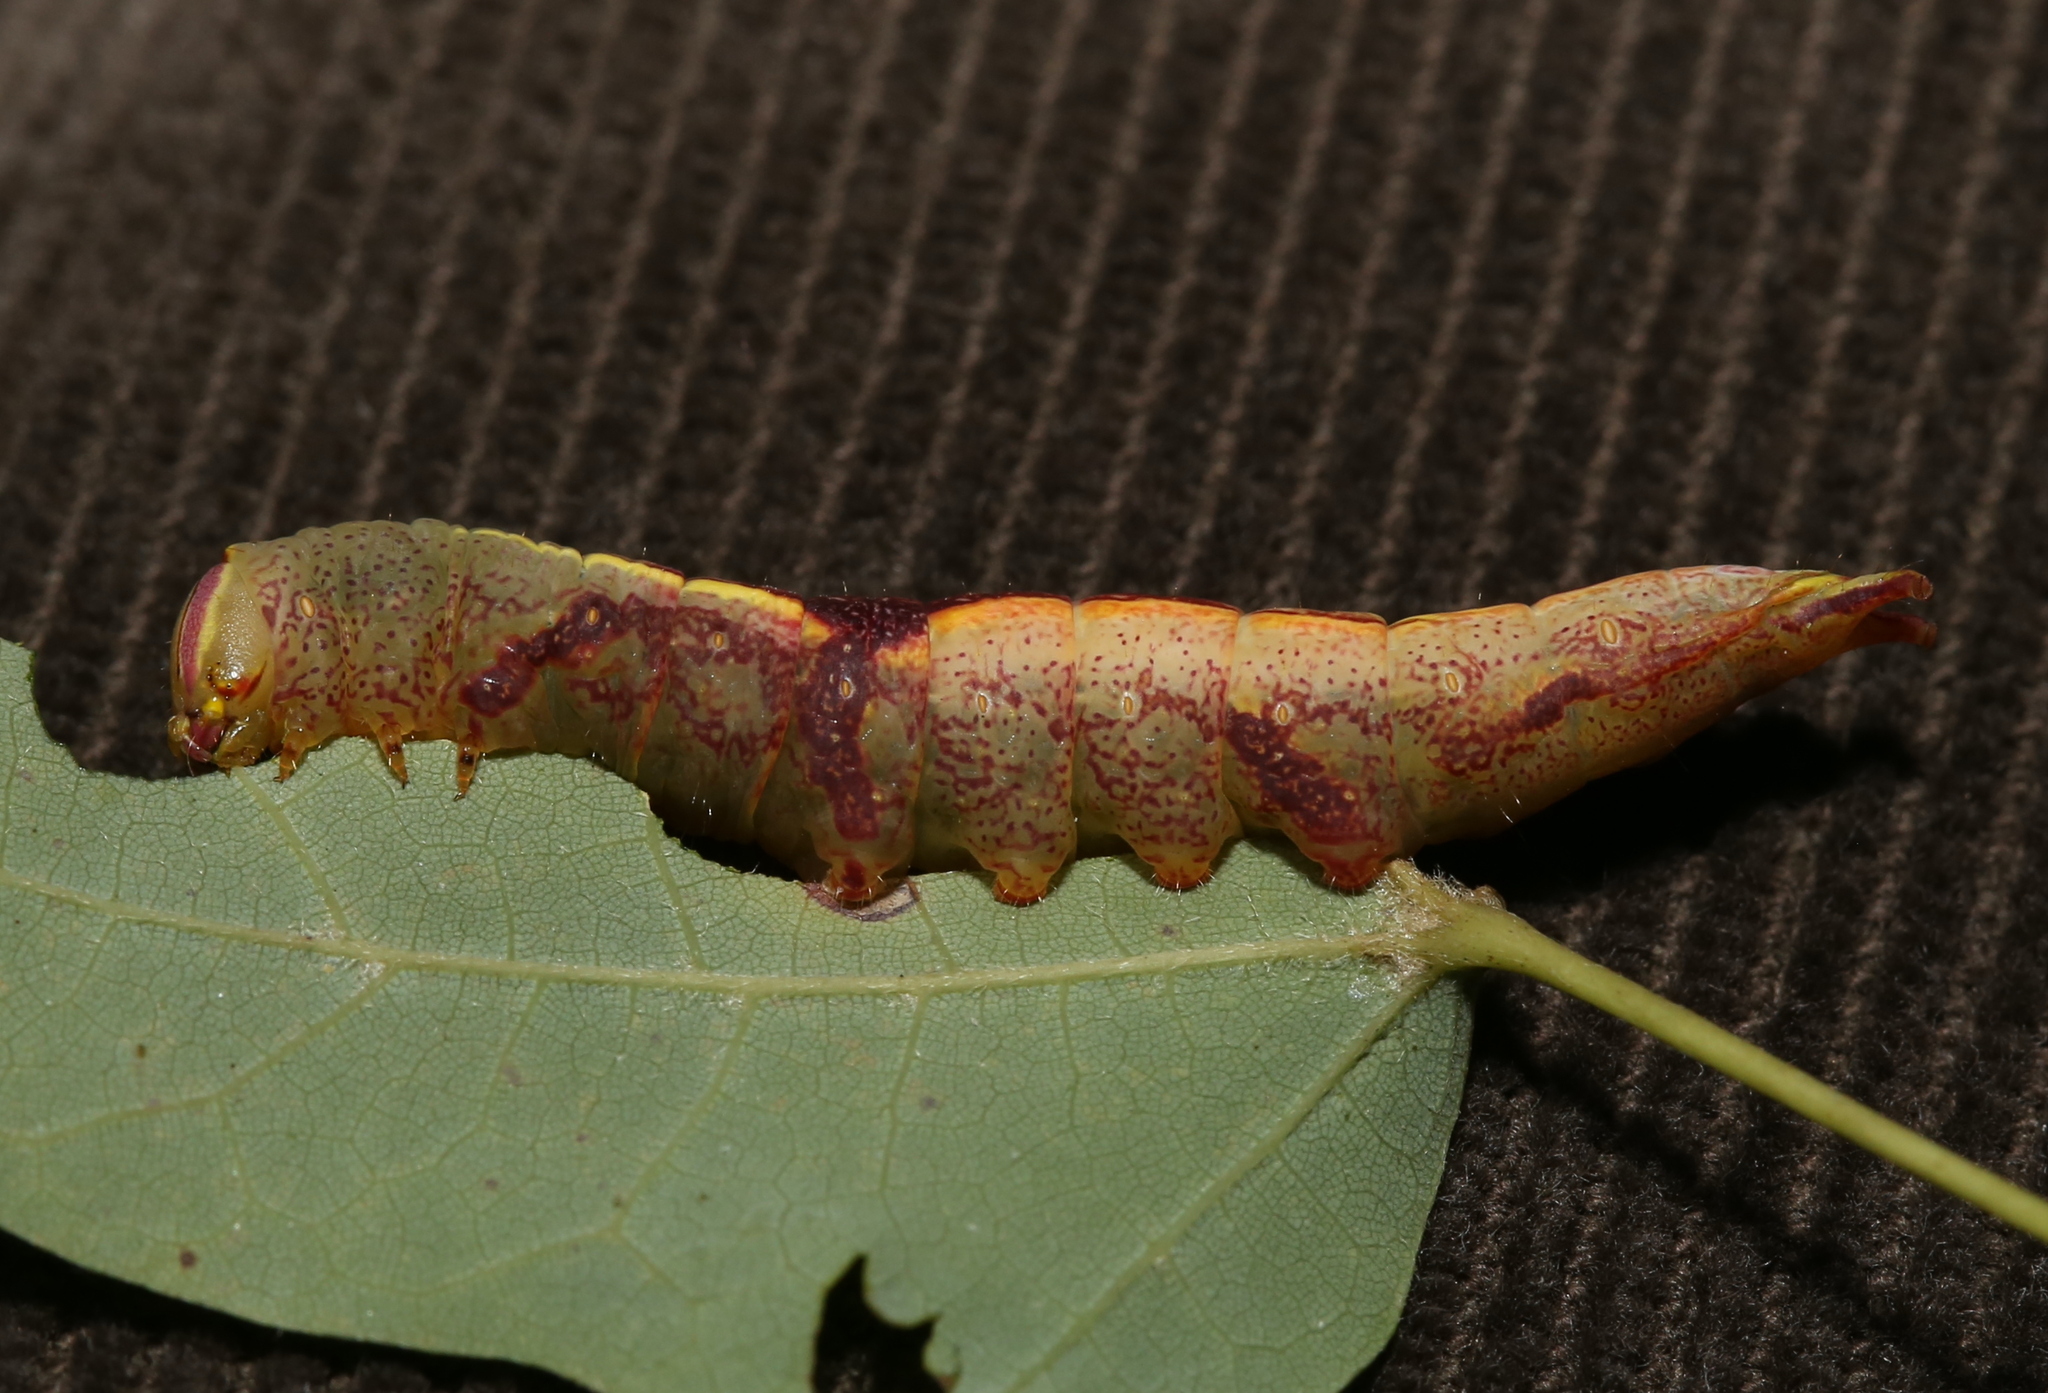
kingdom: Animalia
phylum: Arthropoda
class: Insecta
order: Lepidoptera
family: Notodontidae
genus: Disphragis
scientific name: Disphragis Cecrita guttivitta
